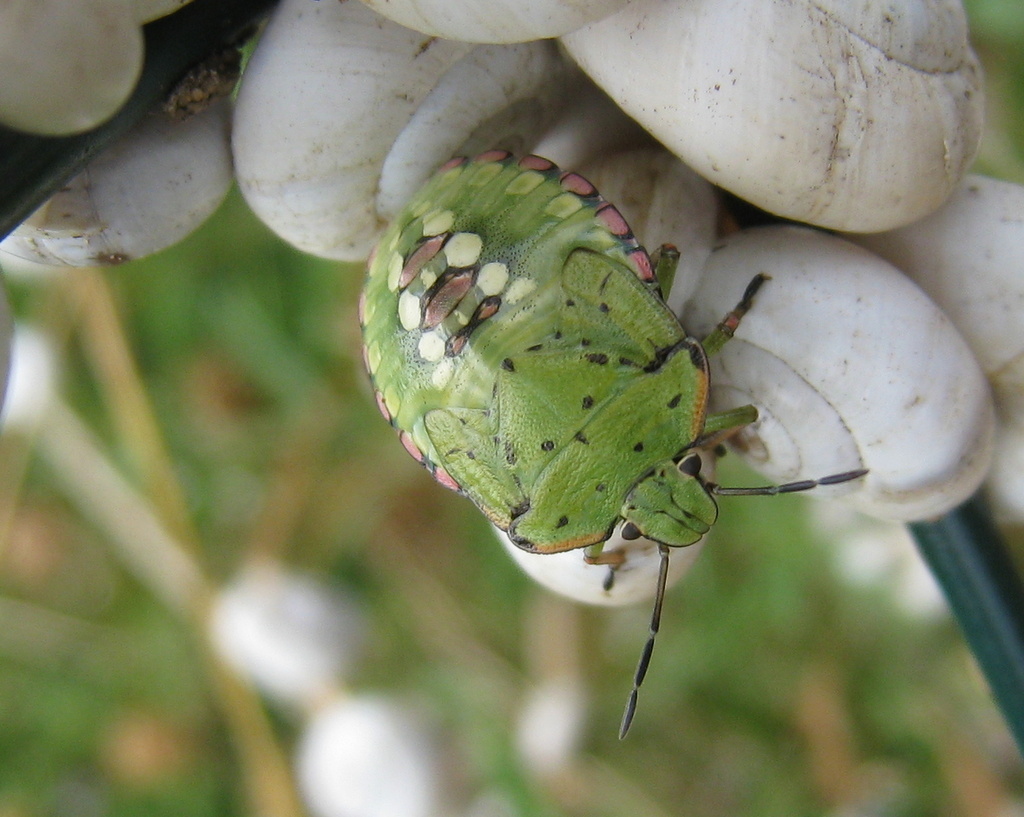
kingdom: Animalia
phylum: Arthropoda
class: Insecta
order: Hemiptera
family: Pentatomidae
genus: Nezara
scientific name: Nezara viridula
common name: Southern green stink bug
